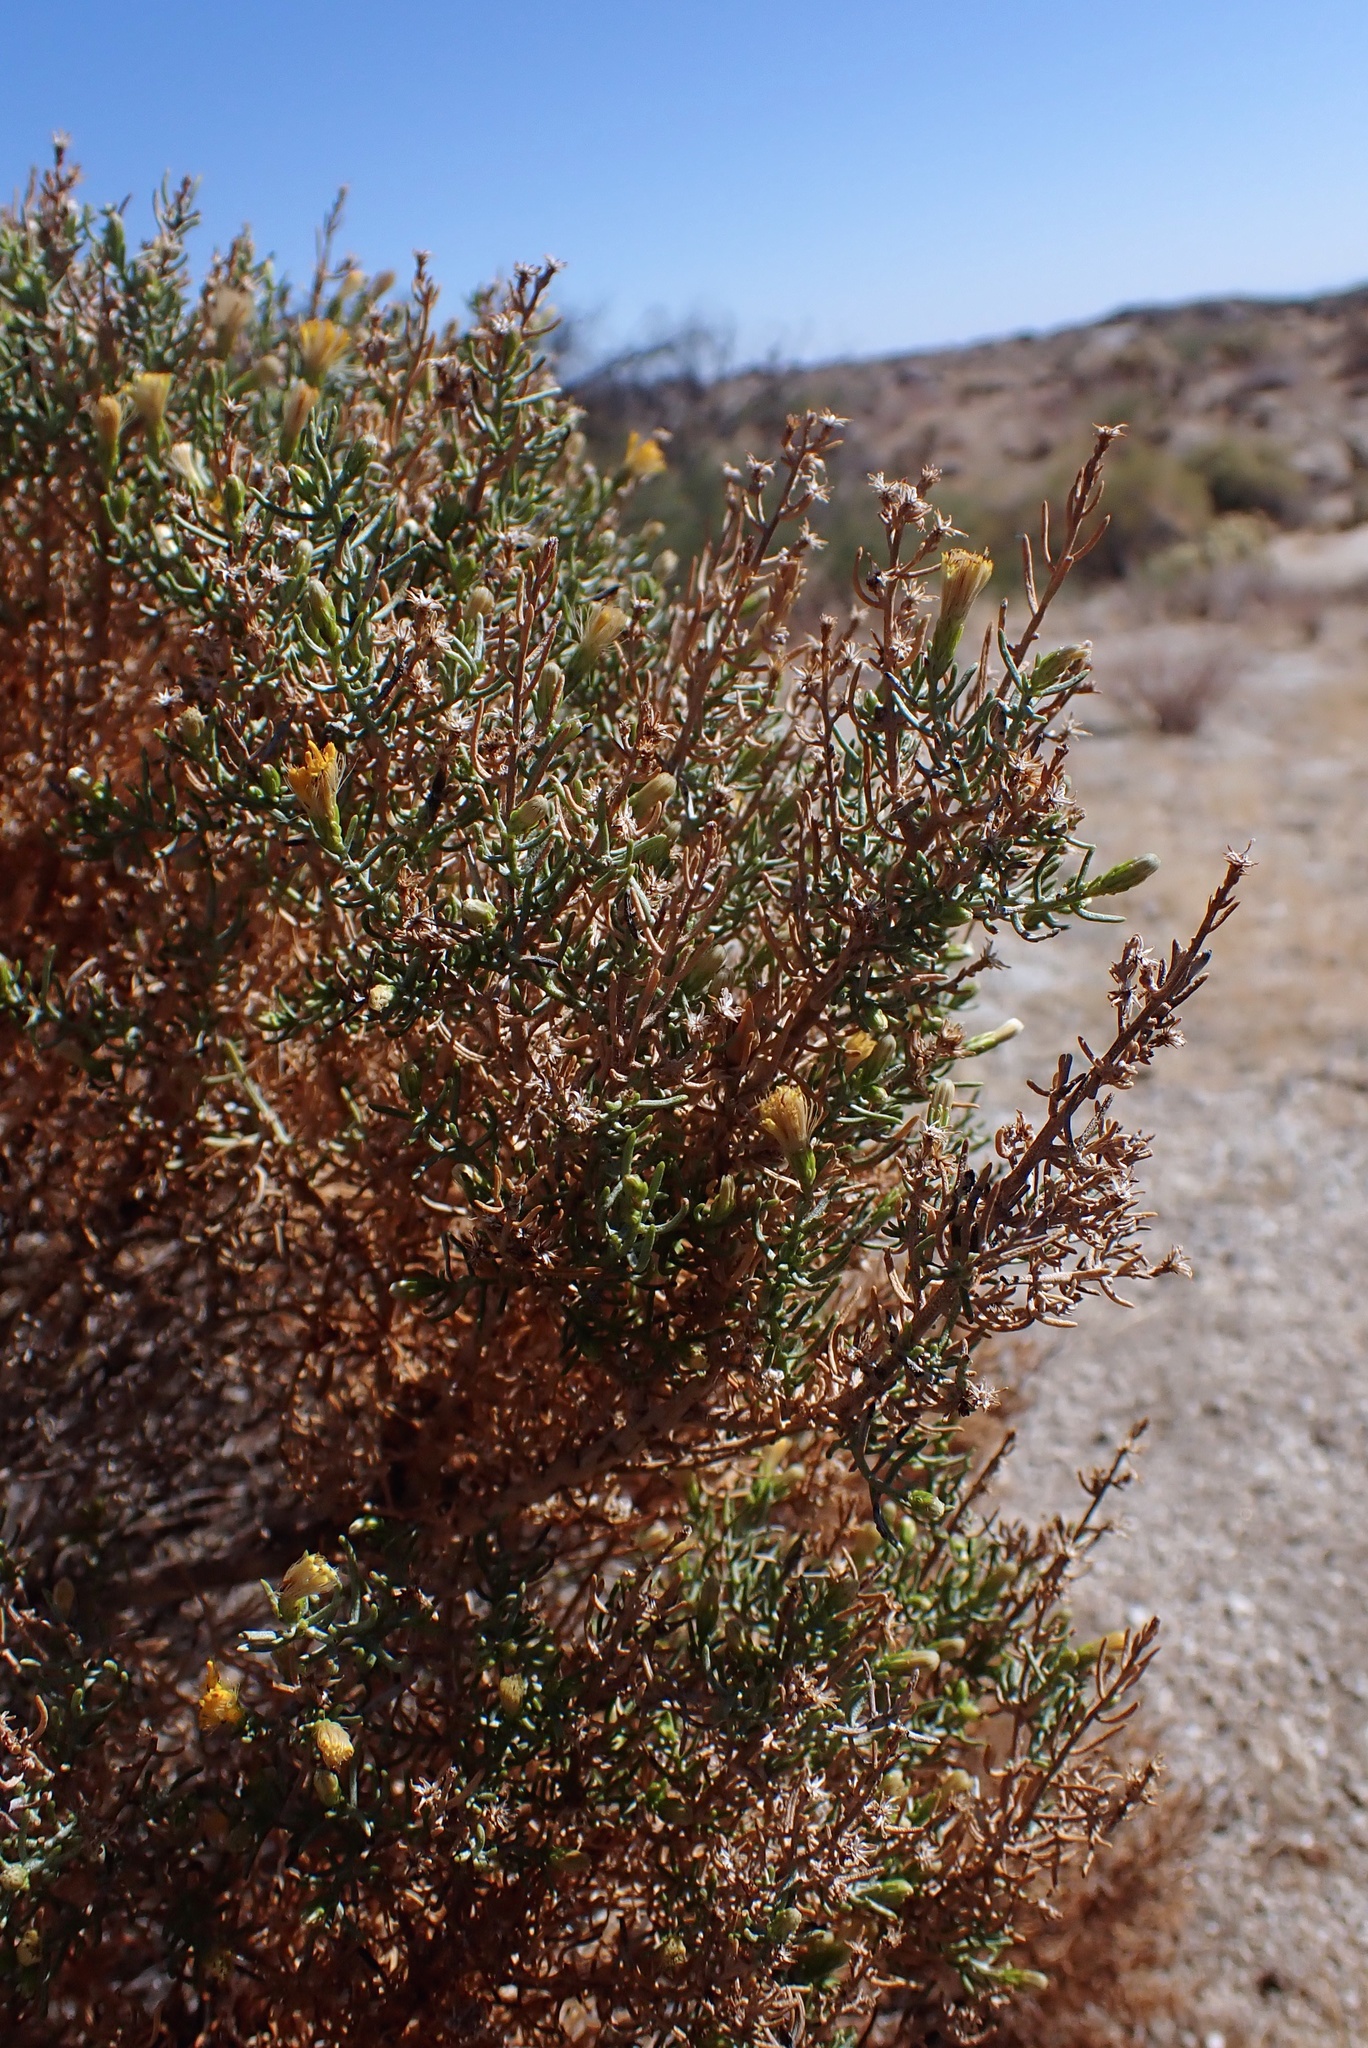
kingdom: Plantae
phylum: Tracheophyta
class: Magnoliopsida
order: Asterales
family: Asteraceae
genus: Ericameria
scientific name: Ericameria brachylepis
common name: Boundary goldenbush
